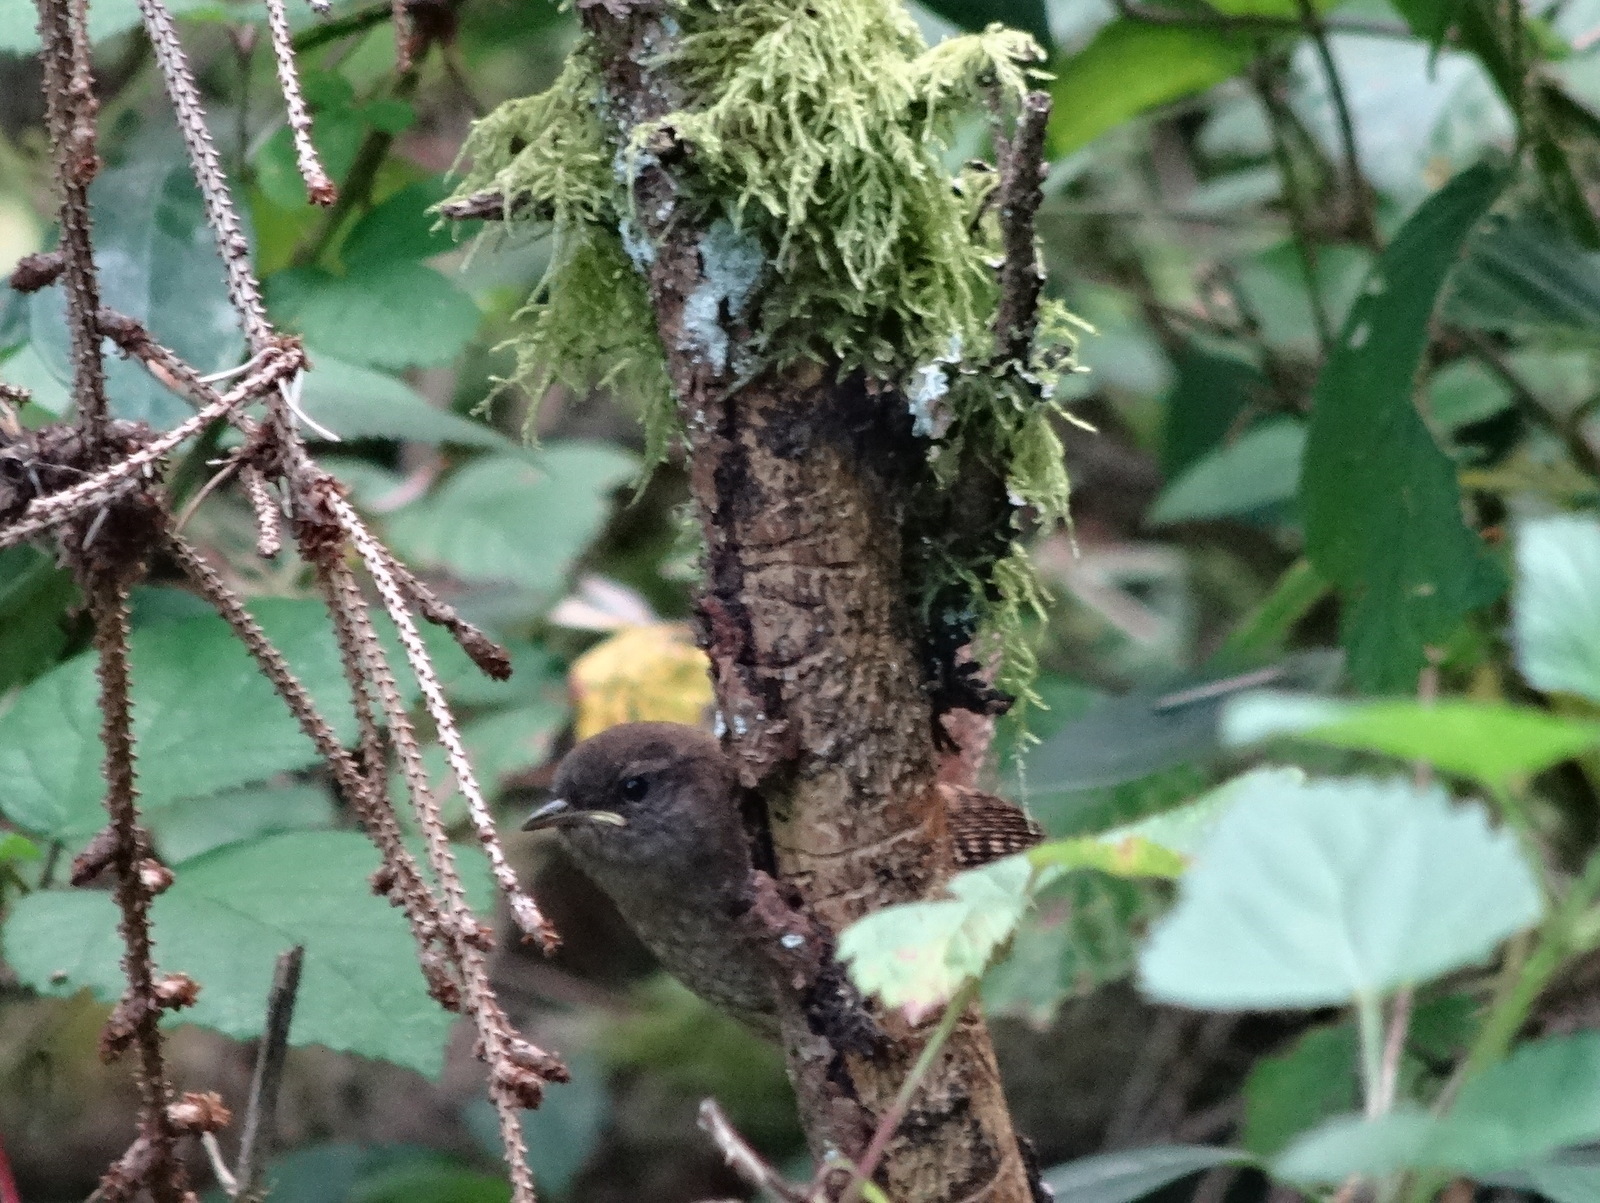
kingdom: Animalia
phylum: Chordata
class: Aves
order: Passeriformes
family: Troglodytidae
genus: Troglodytes
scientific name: Troglodytes troglodytes
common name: Eurasian wren
